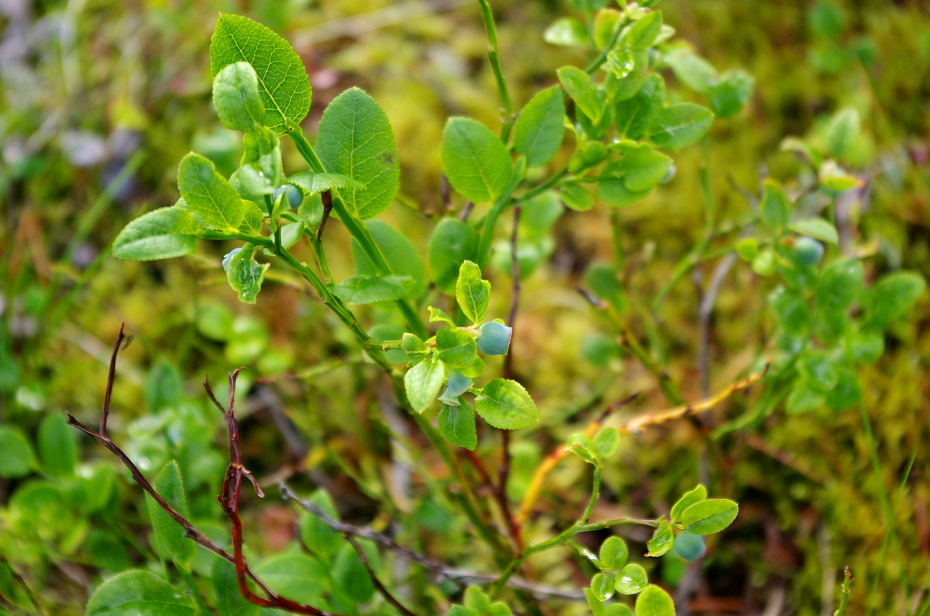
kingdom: Plantae
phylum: Tracheophyta
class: Magnoliopsida
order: Ericales
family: Ericaceae
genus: Vaccinium
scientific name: Vaccinium myrtillus
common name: Bilberry
